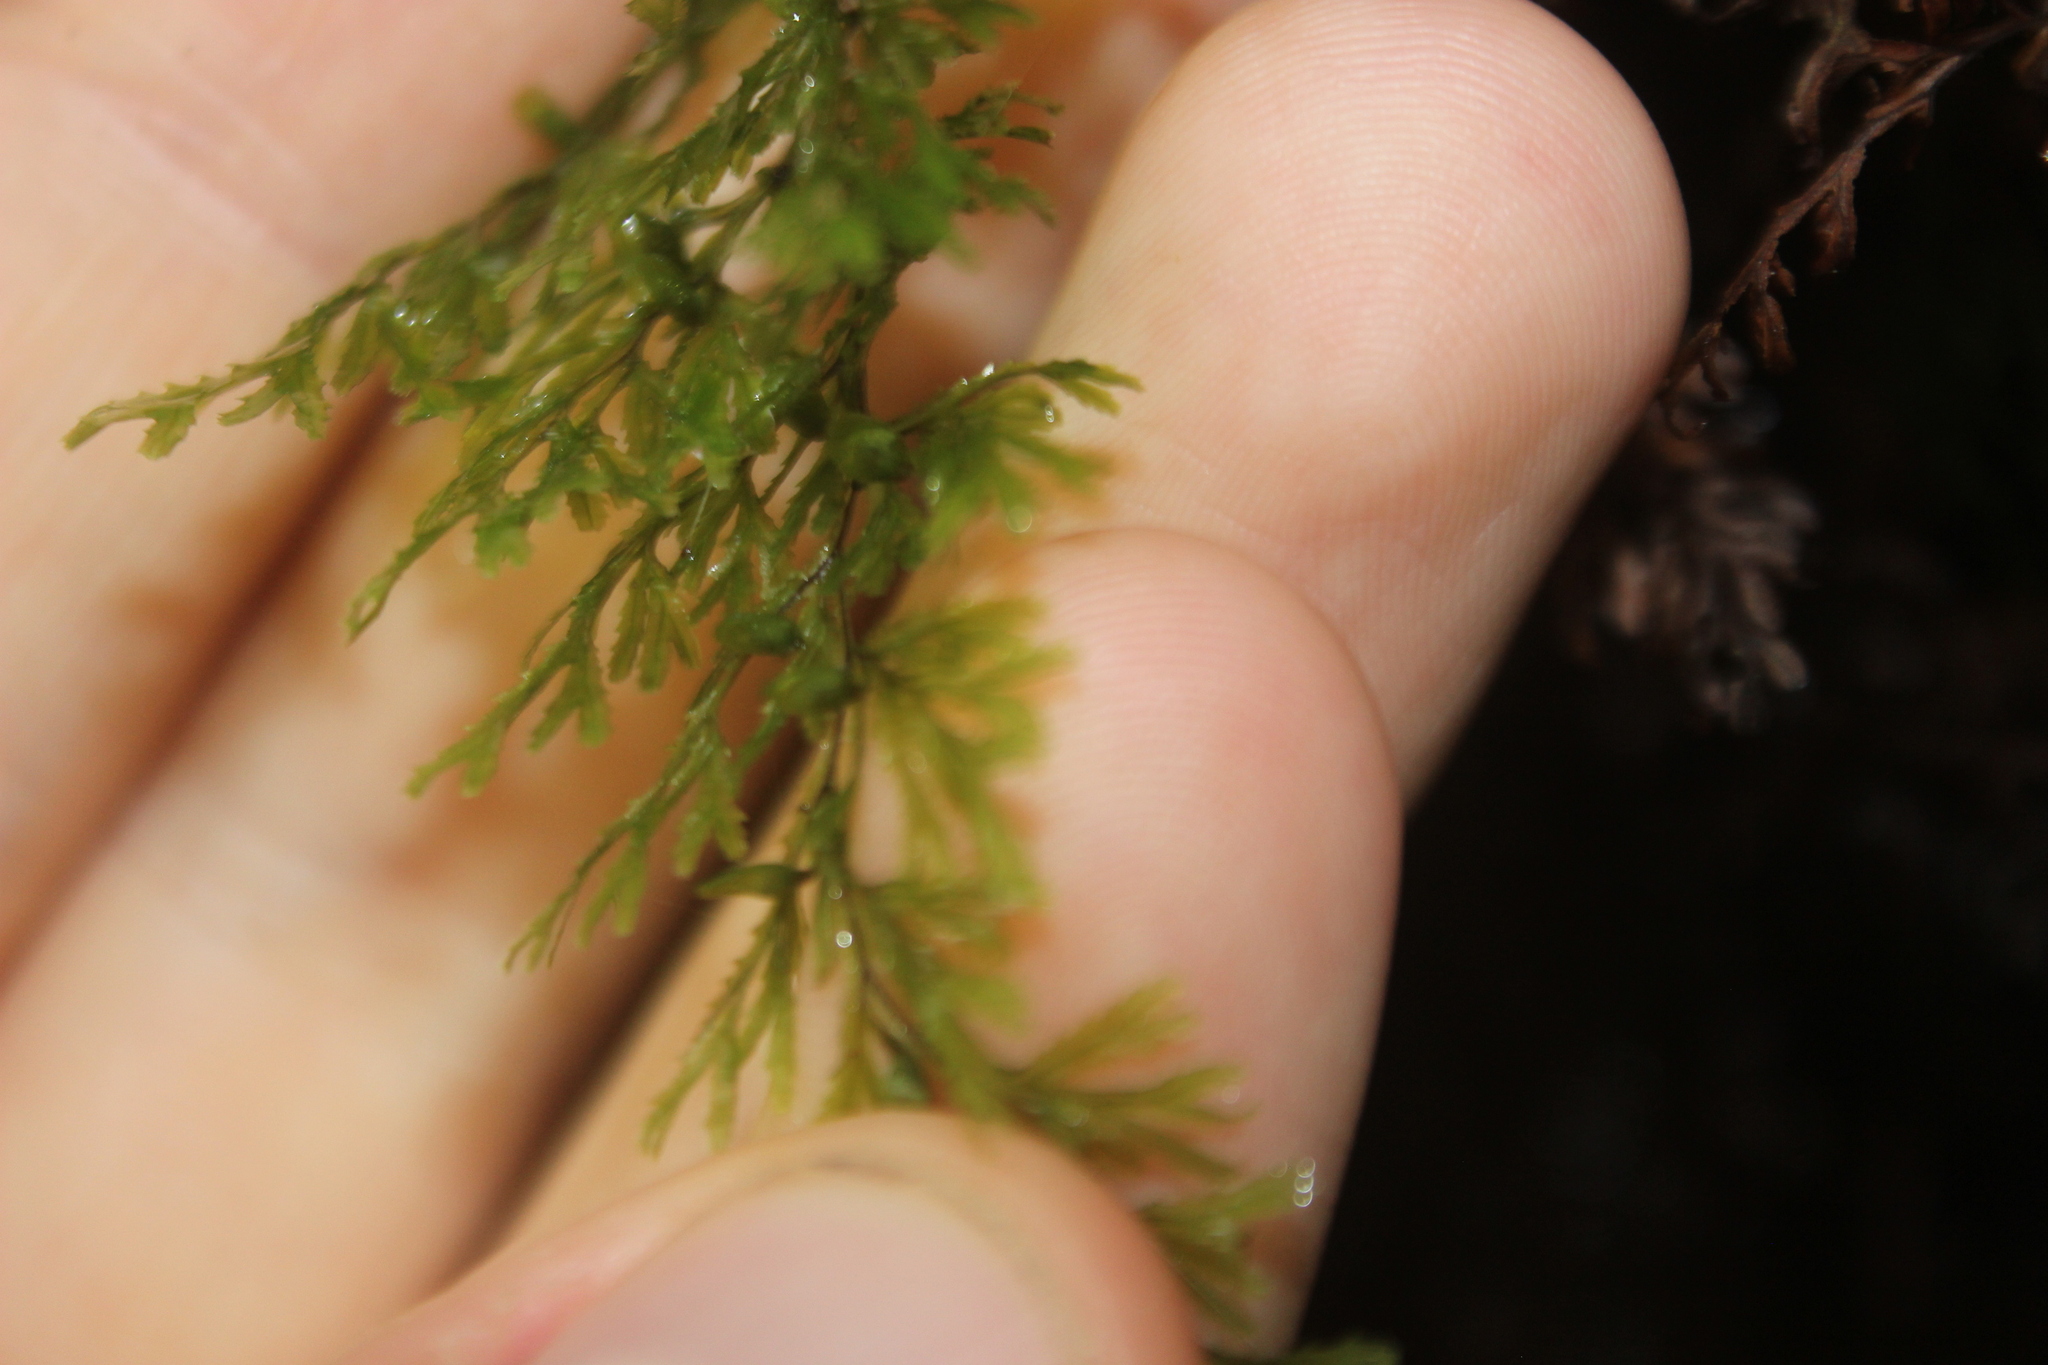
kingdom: Plantae
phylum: Tracheophyta
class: Polypodiopsida
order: Hymenophyllales
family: Hymenophyllaceae
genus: Hymenophyllum
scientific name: Hymenophyllum multifidum
